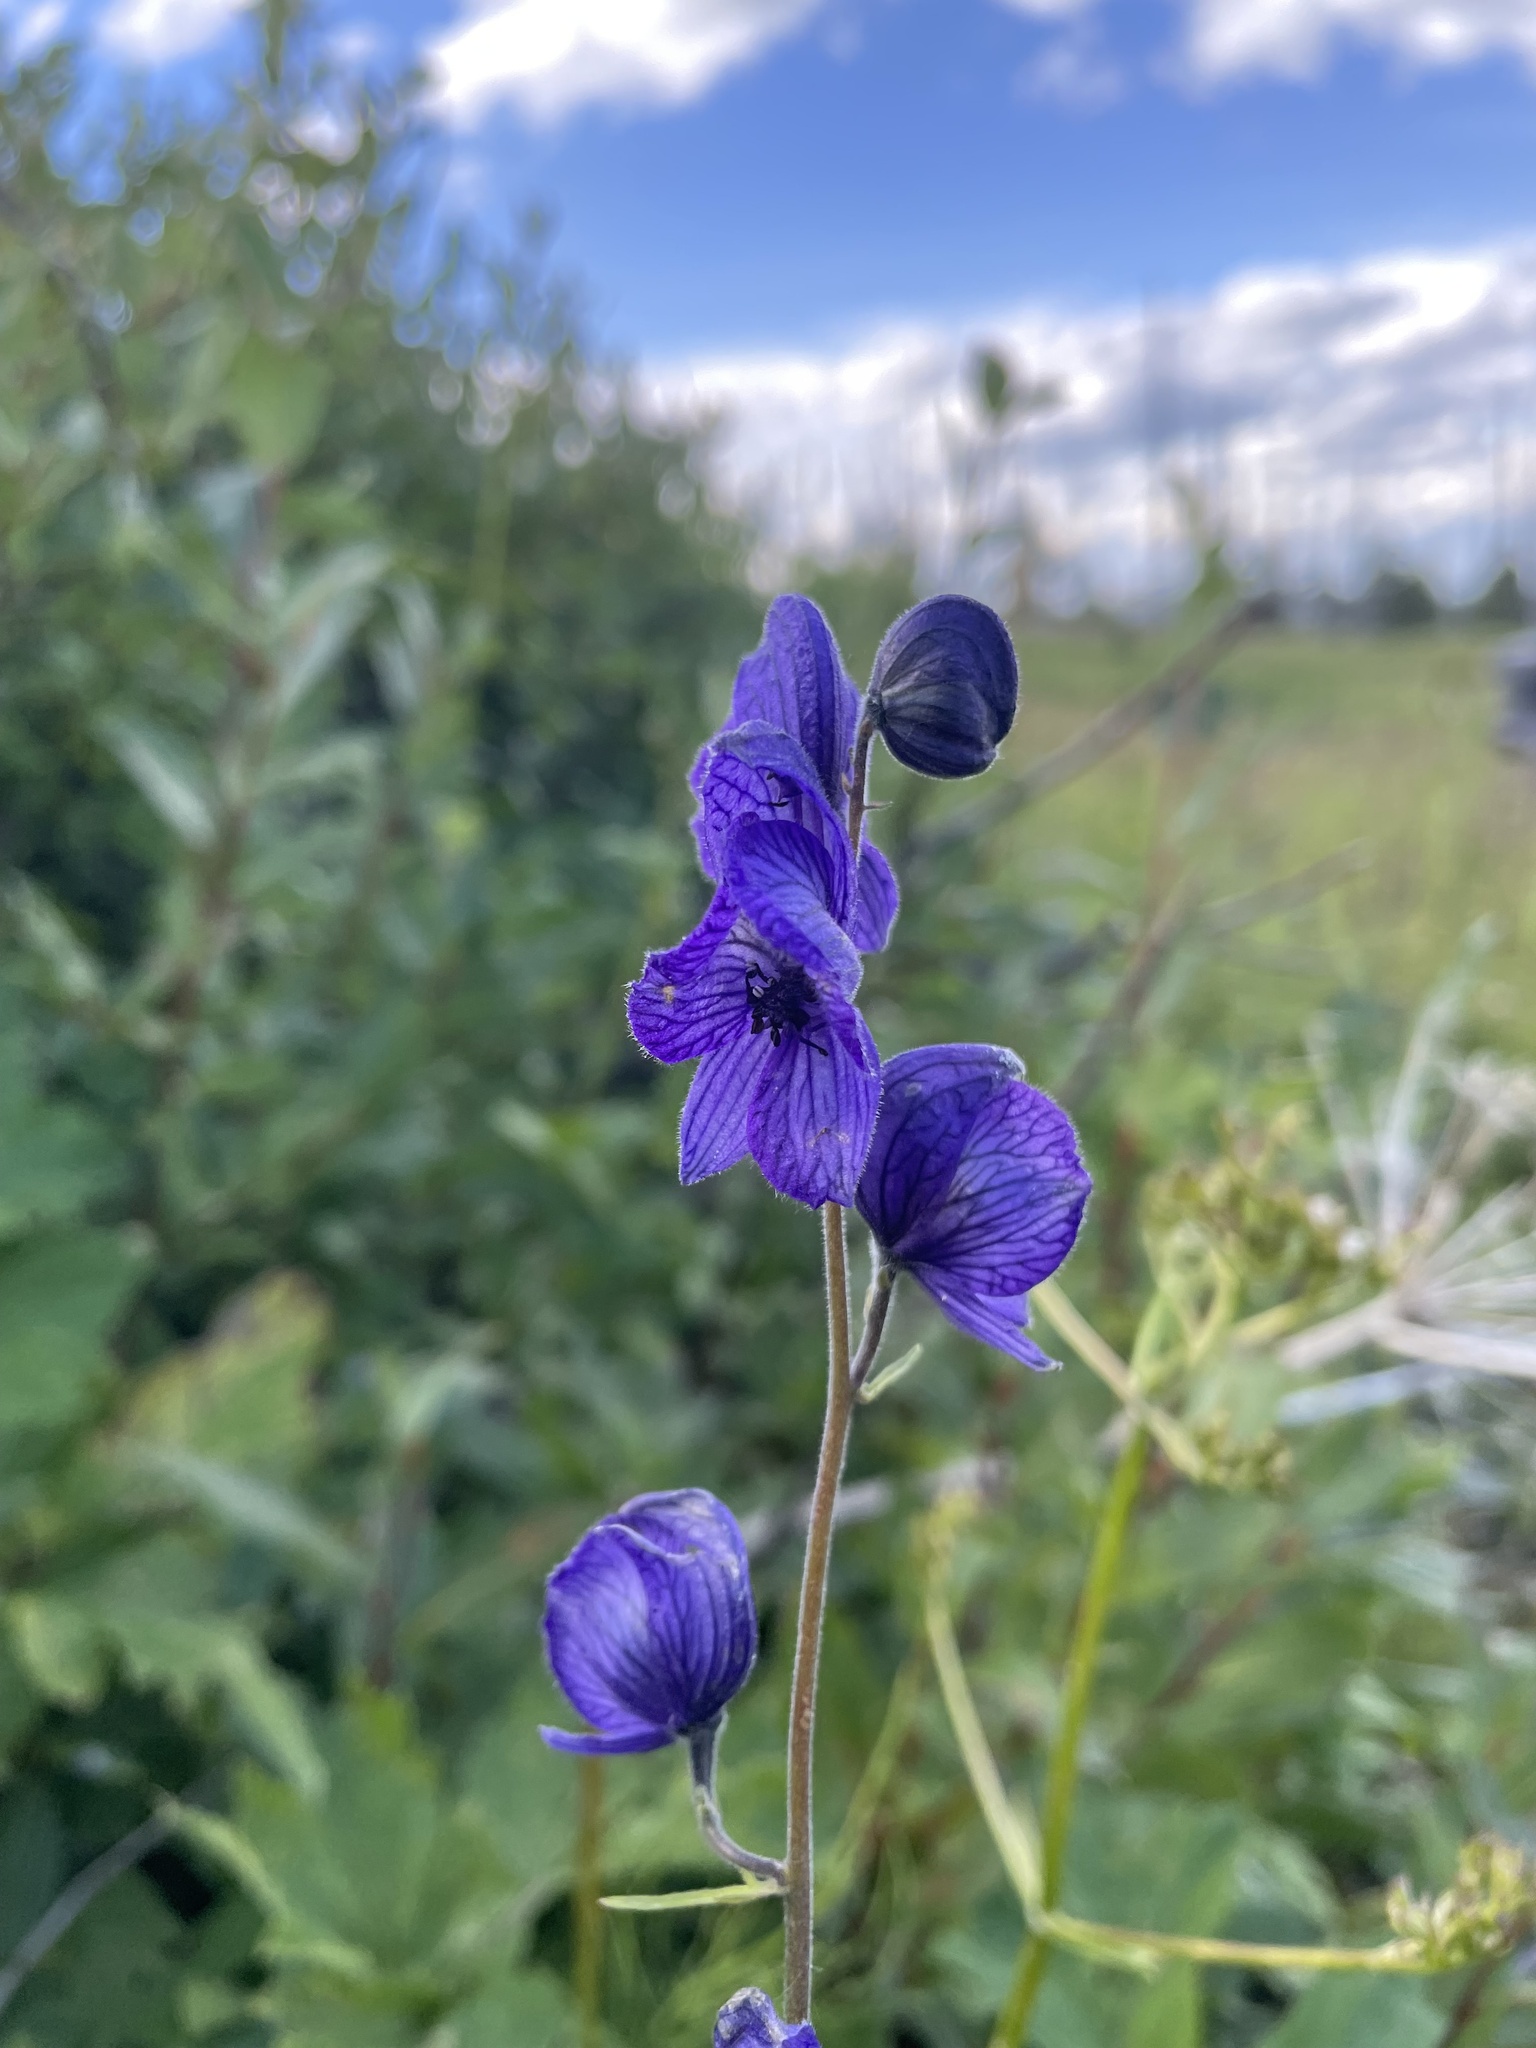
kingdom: Plantae
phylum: Tracheophyta
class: Magnoliopsida
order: Ranunculales
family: Ranunculaceae
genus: Aconitum
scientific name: Aconitum delphiniifolium
